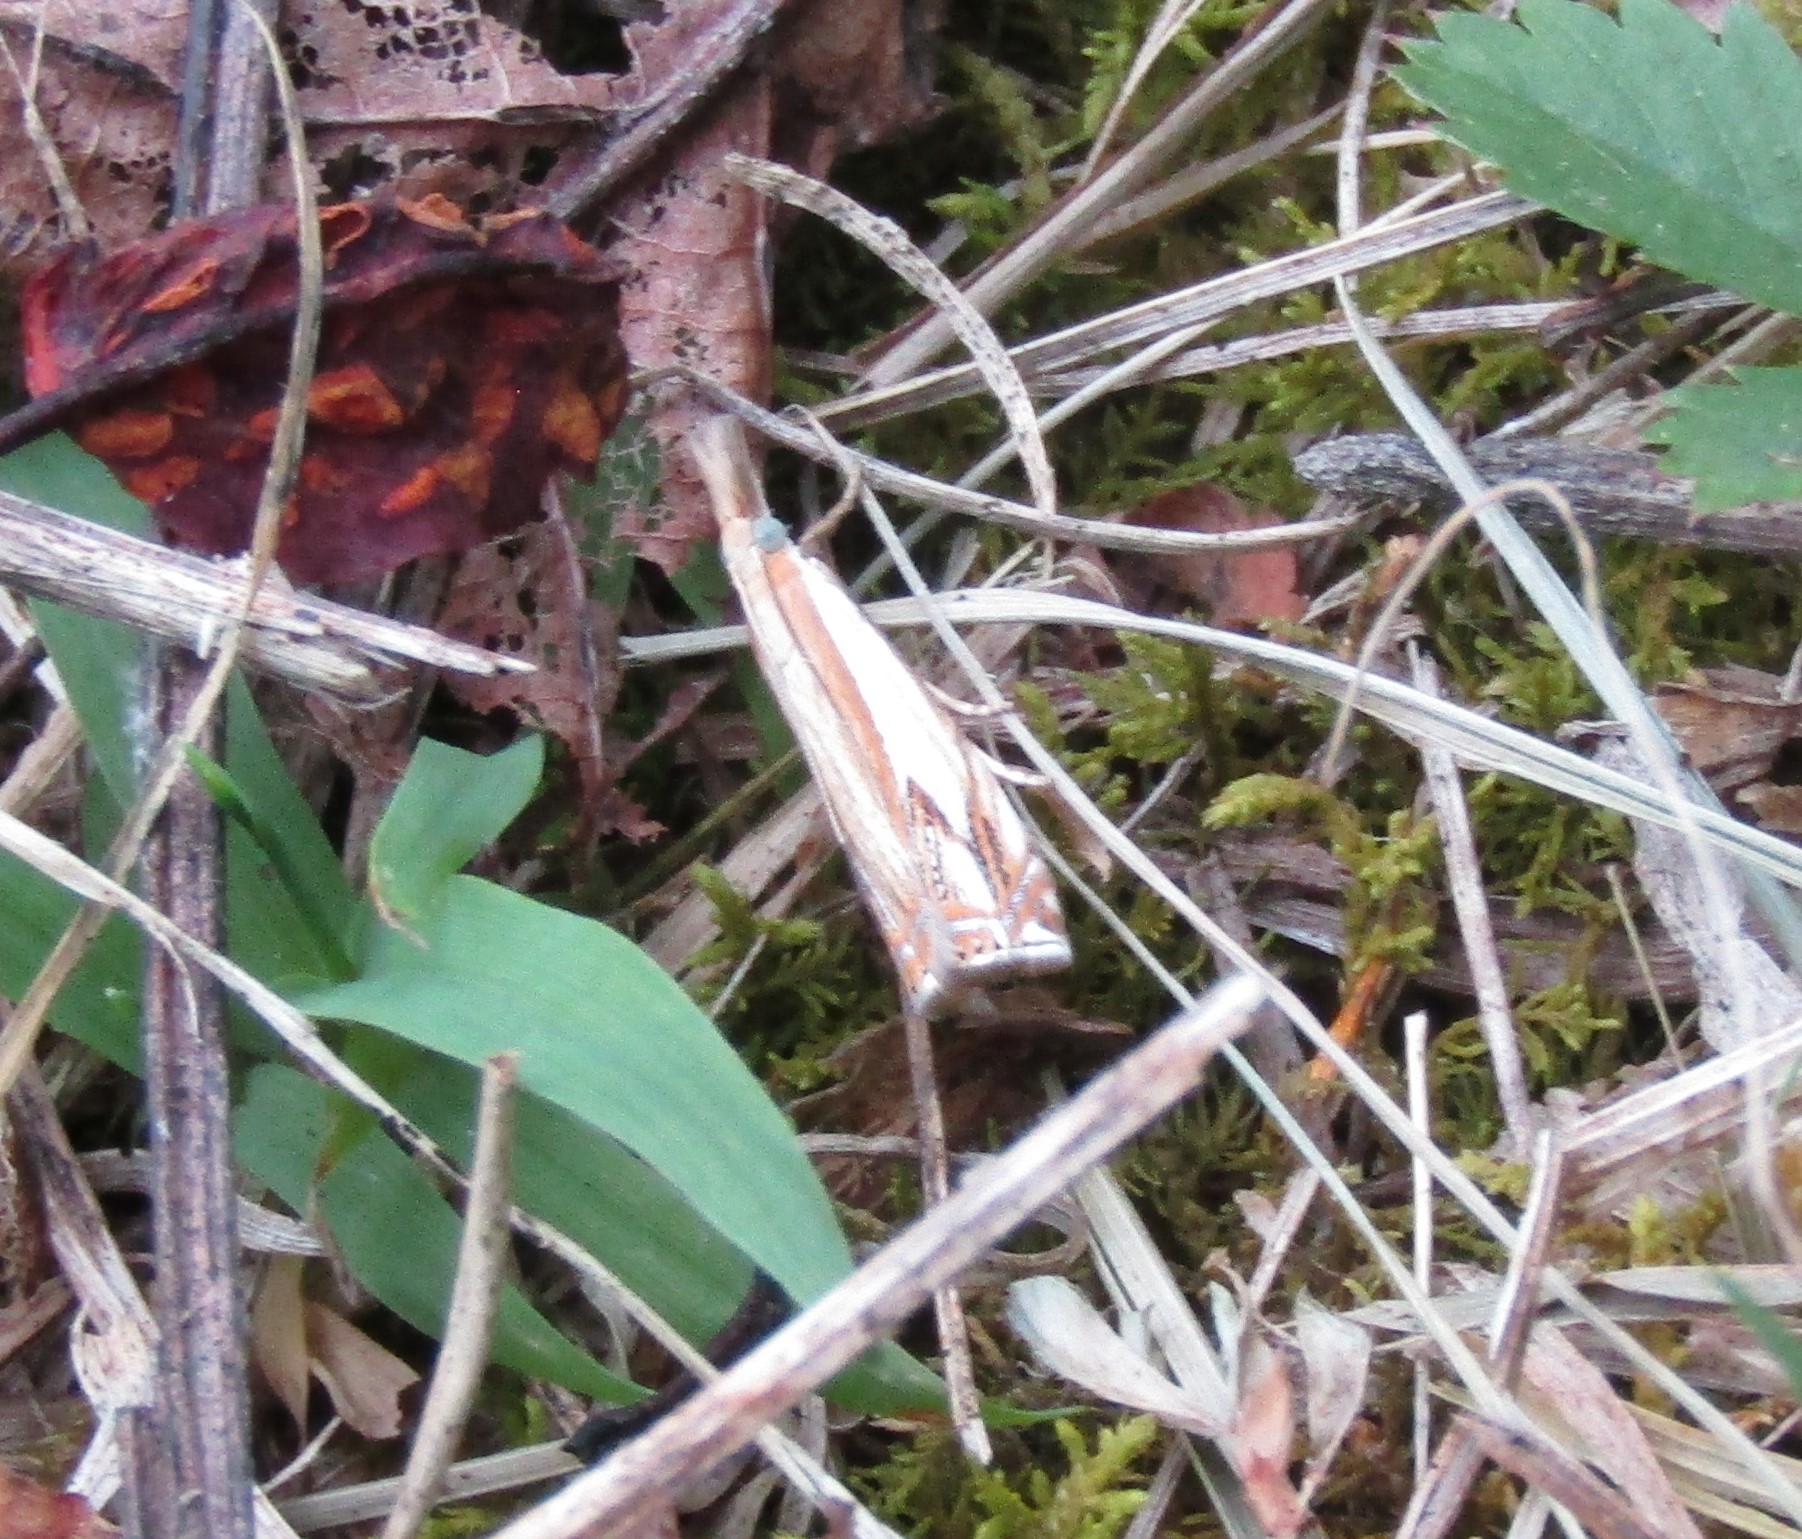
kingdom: Animalia
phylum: Arthropoda
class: Insecta
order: Lepidoptera
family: Crambidae
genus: Crambus
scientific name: Crambus agitatellus
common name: Double-banded grass-veneer
